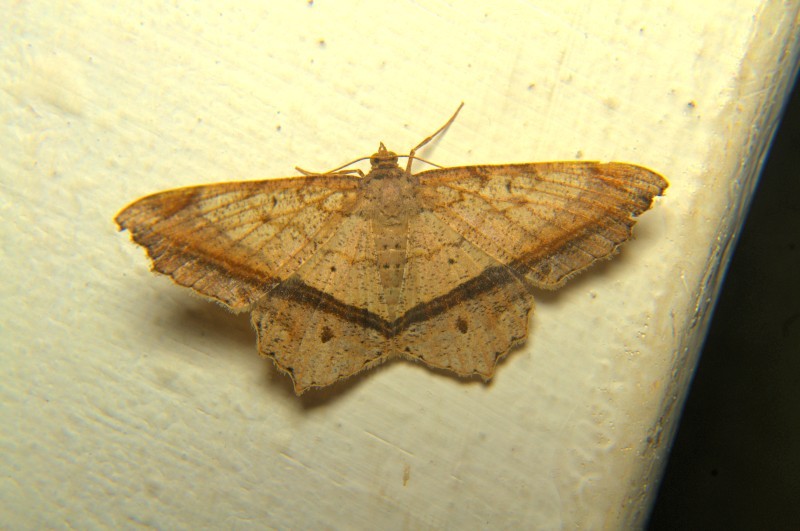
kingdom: Animalia
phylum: Arthropoda
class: Insecta
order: Lepidoptera
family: Geometridae
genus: Chiasmia
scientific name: Chiasmia ozararia
